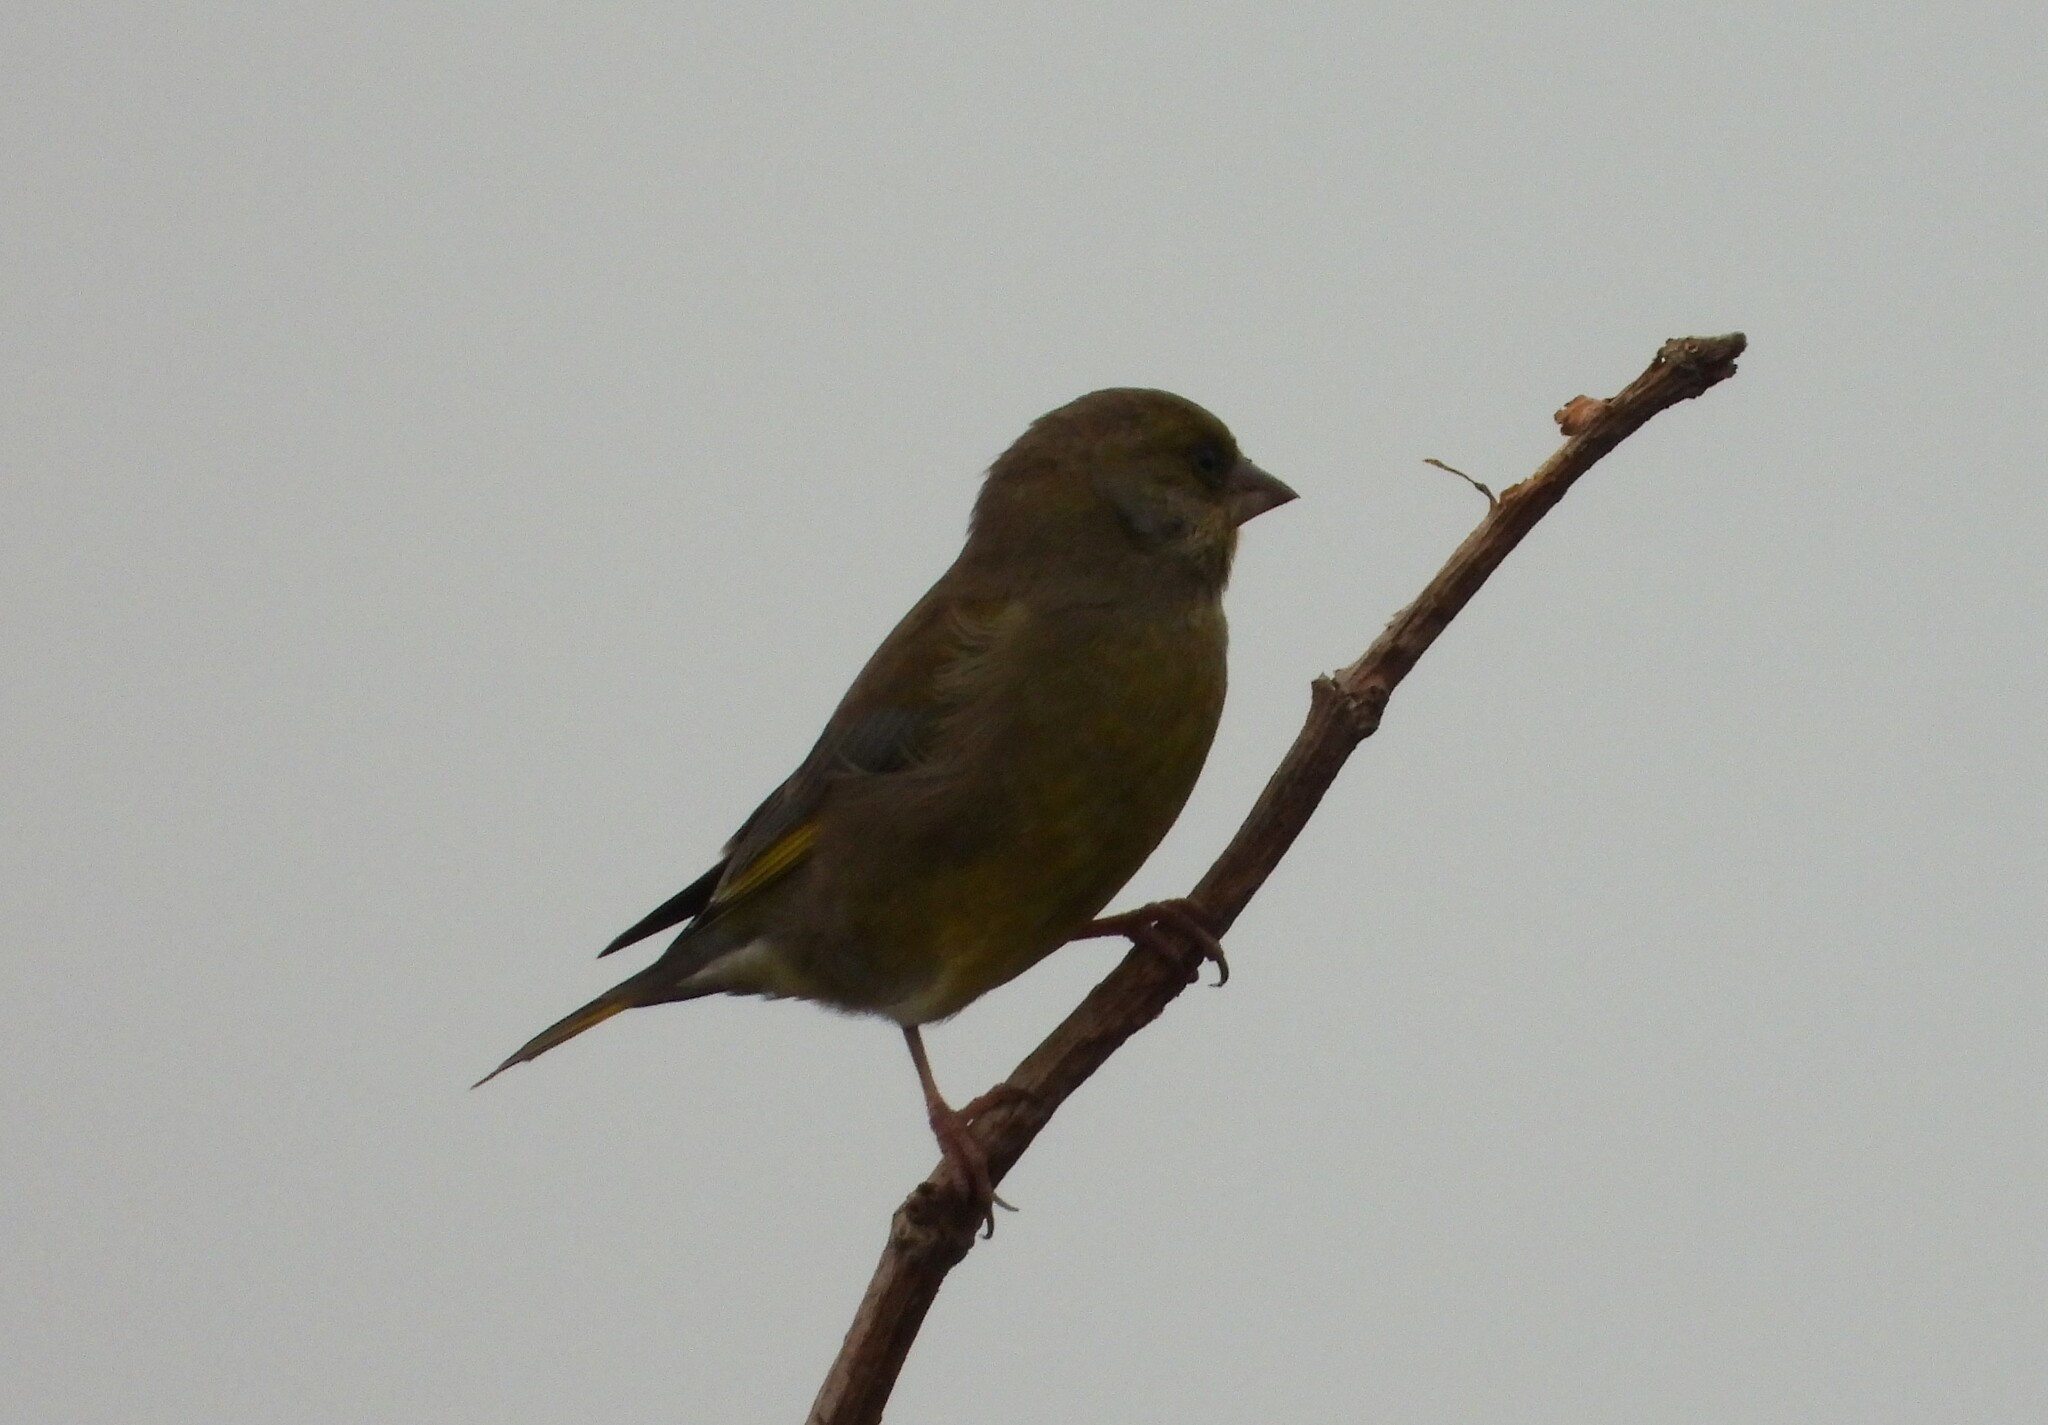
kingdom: Plantae
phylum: Tracheophyta
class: Liliopsida
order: Poales
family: Poaceae
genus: Chloris
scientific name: Chloris chloris
